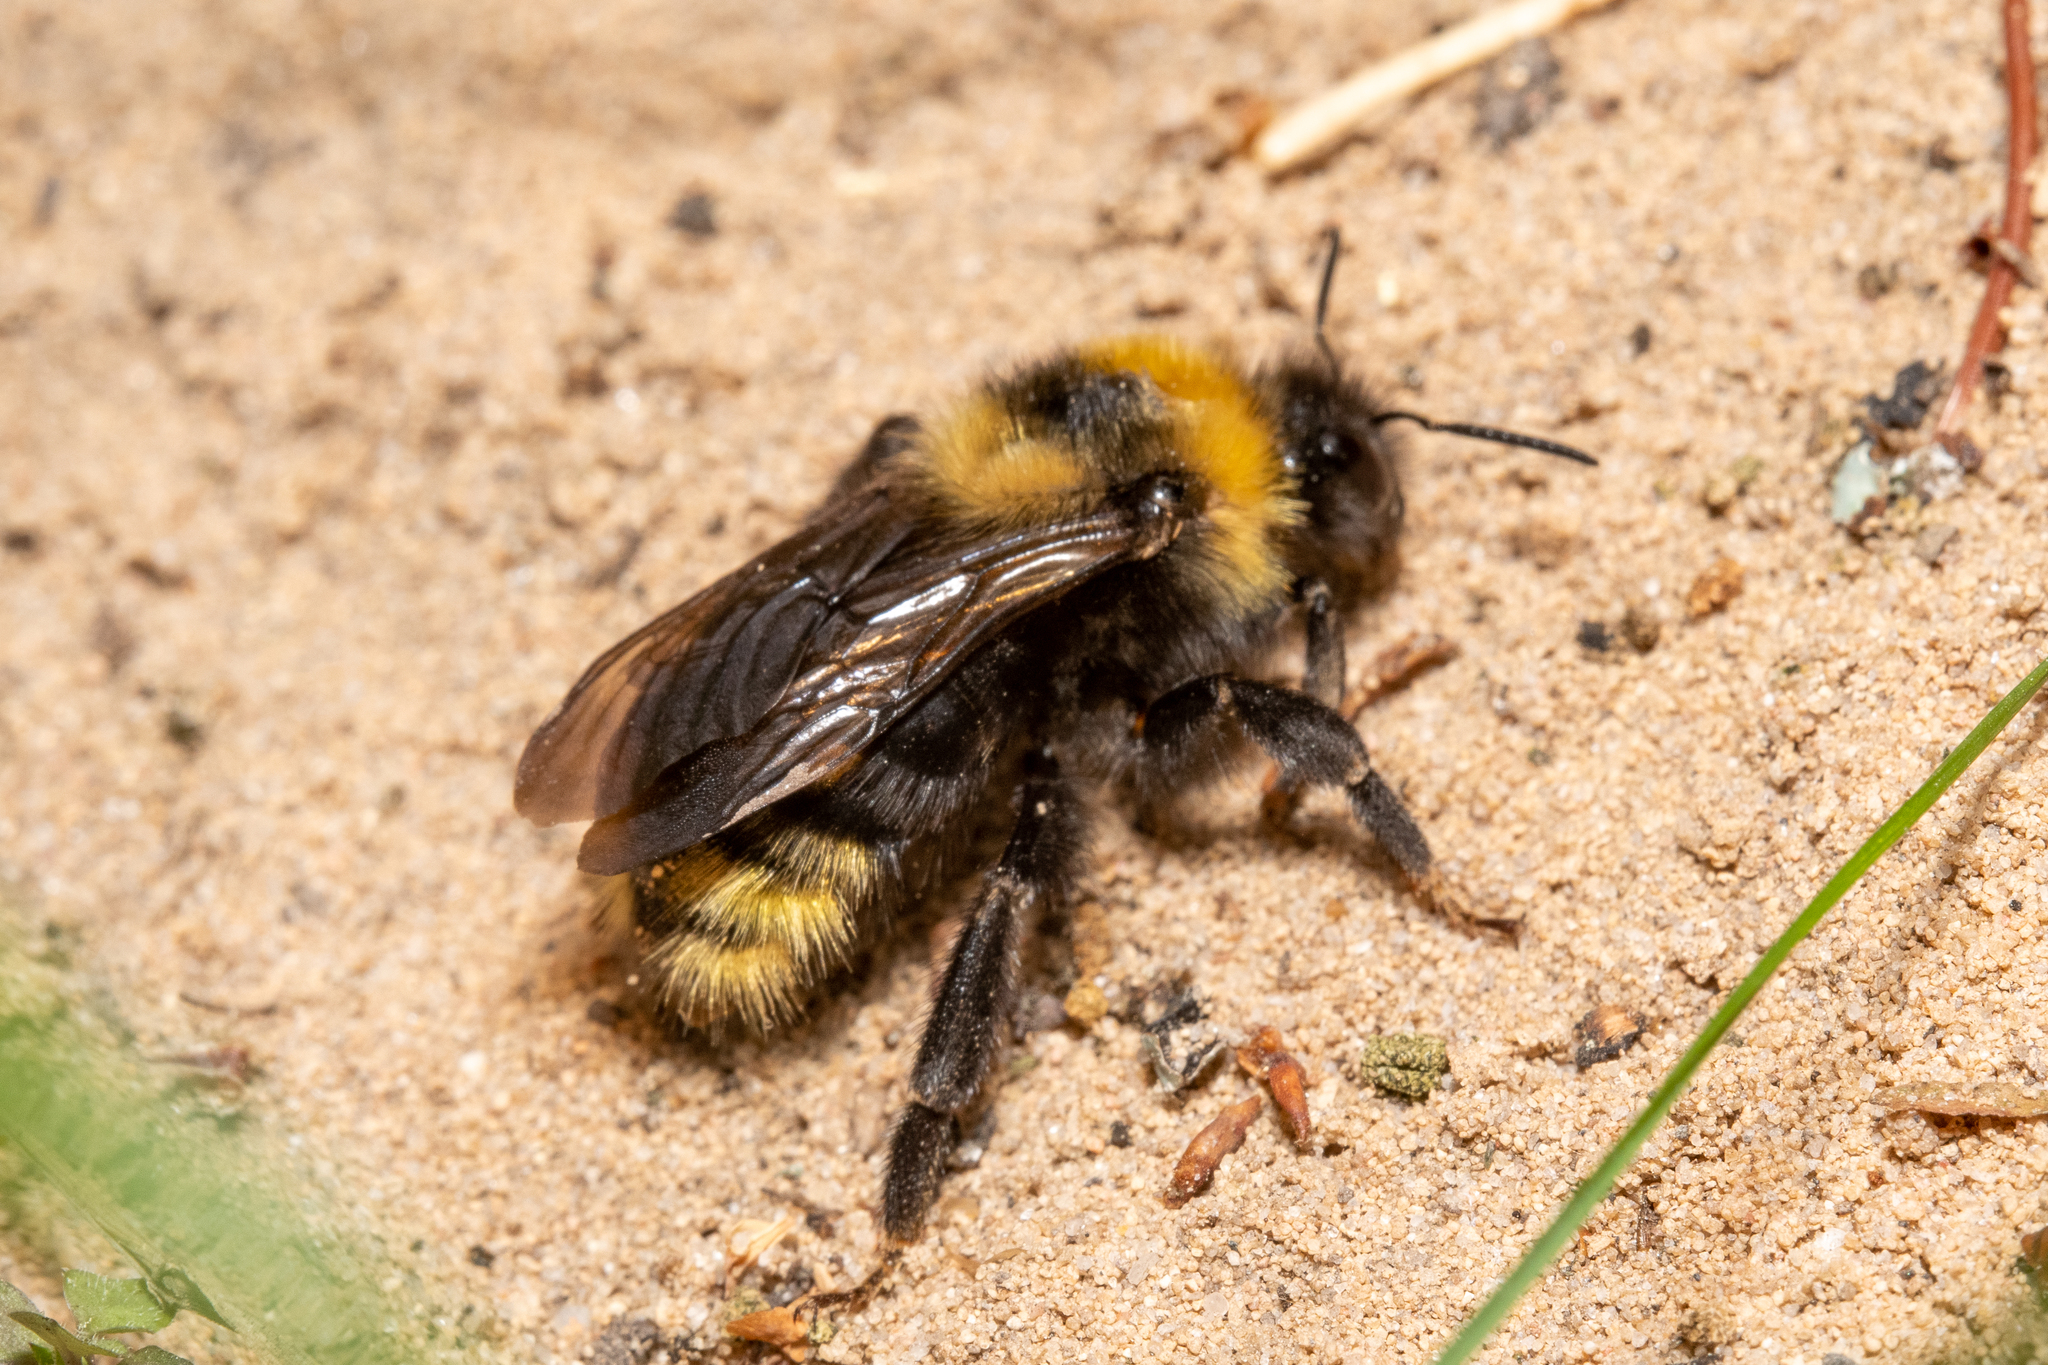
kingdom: Animalia
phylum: Arthropoda
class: Insecta
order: Hymenoptera
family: Apidae
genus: Bombus
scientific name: Bombus campestris
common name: Field cuckoo-bee
